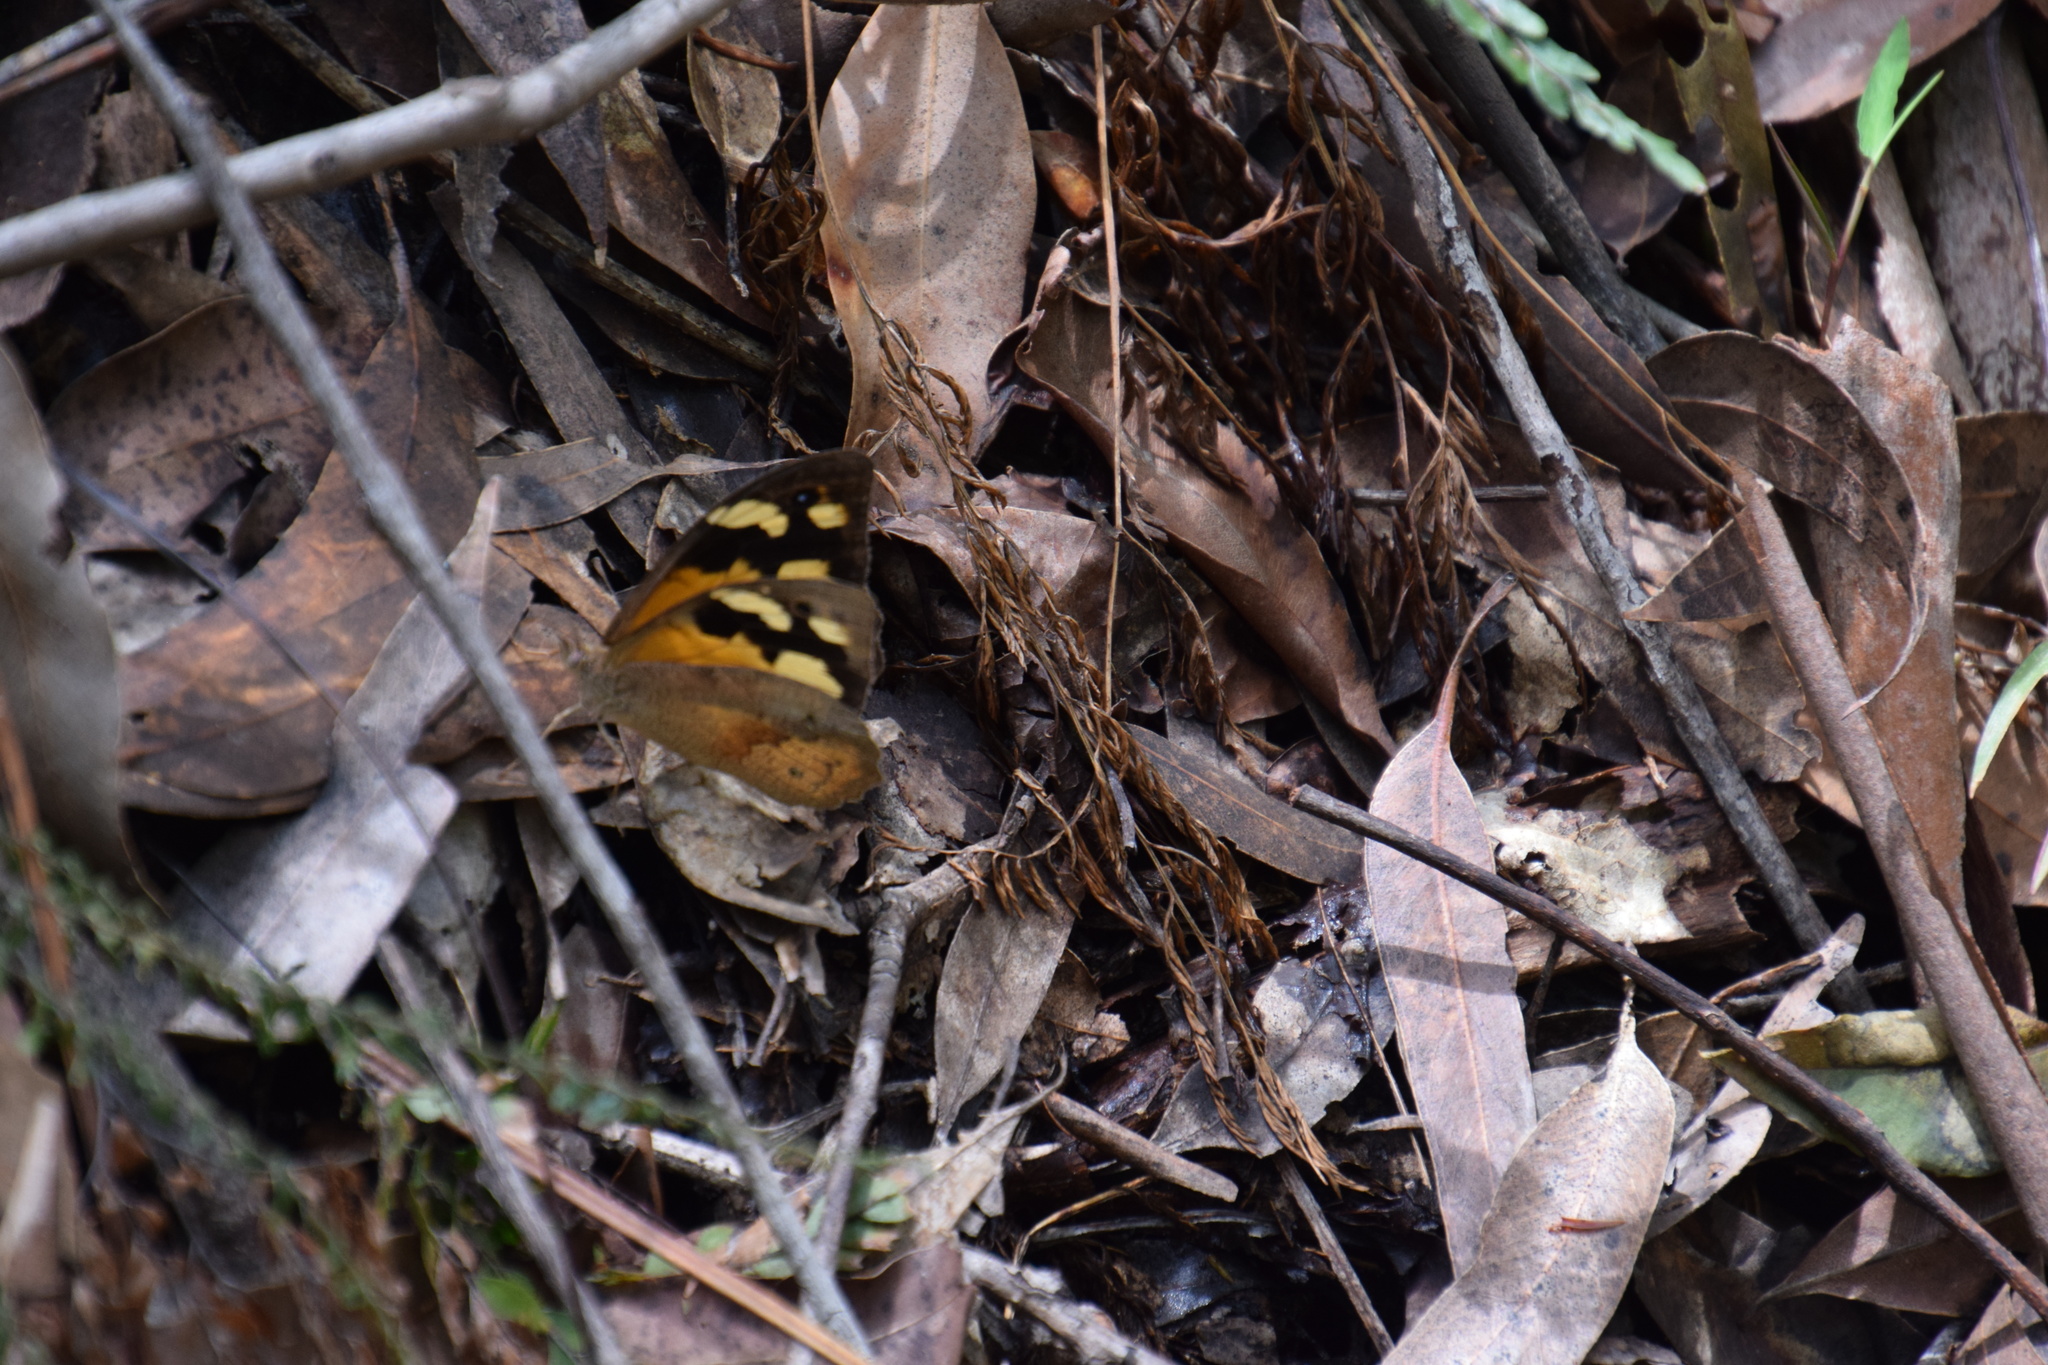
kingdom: Animalia
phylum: Arthropoda
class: Insecta
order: Lepidoptera
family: Nymphalidae
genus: Heteronympha
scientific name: Heteronympha merope
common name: Common brown
